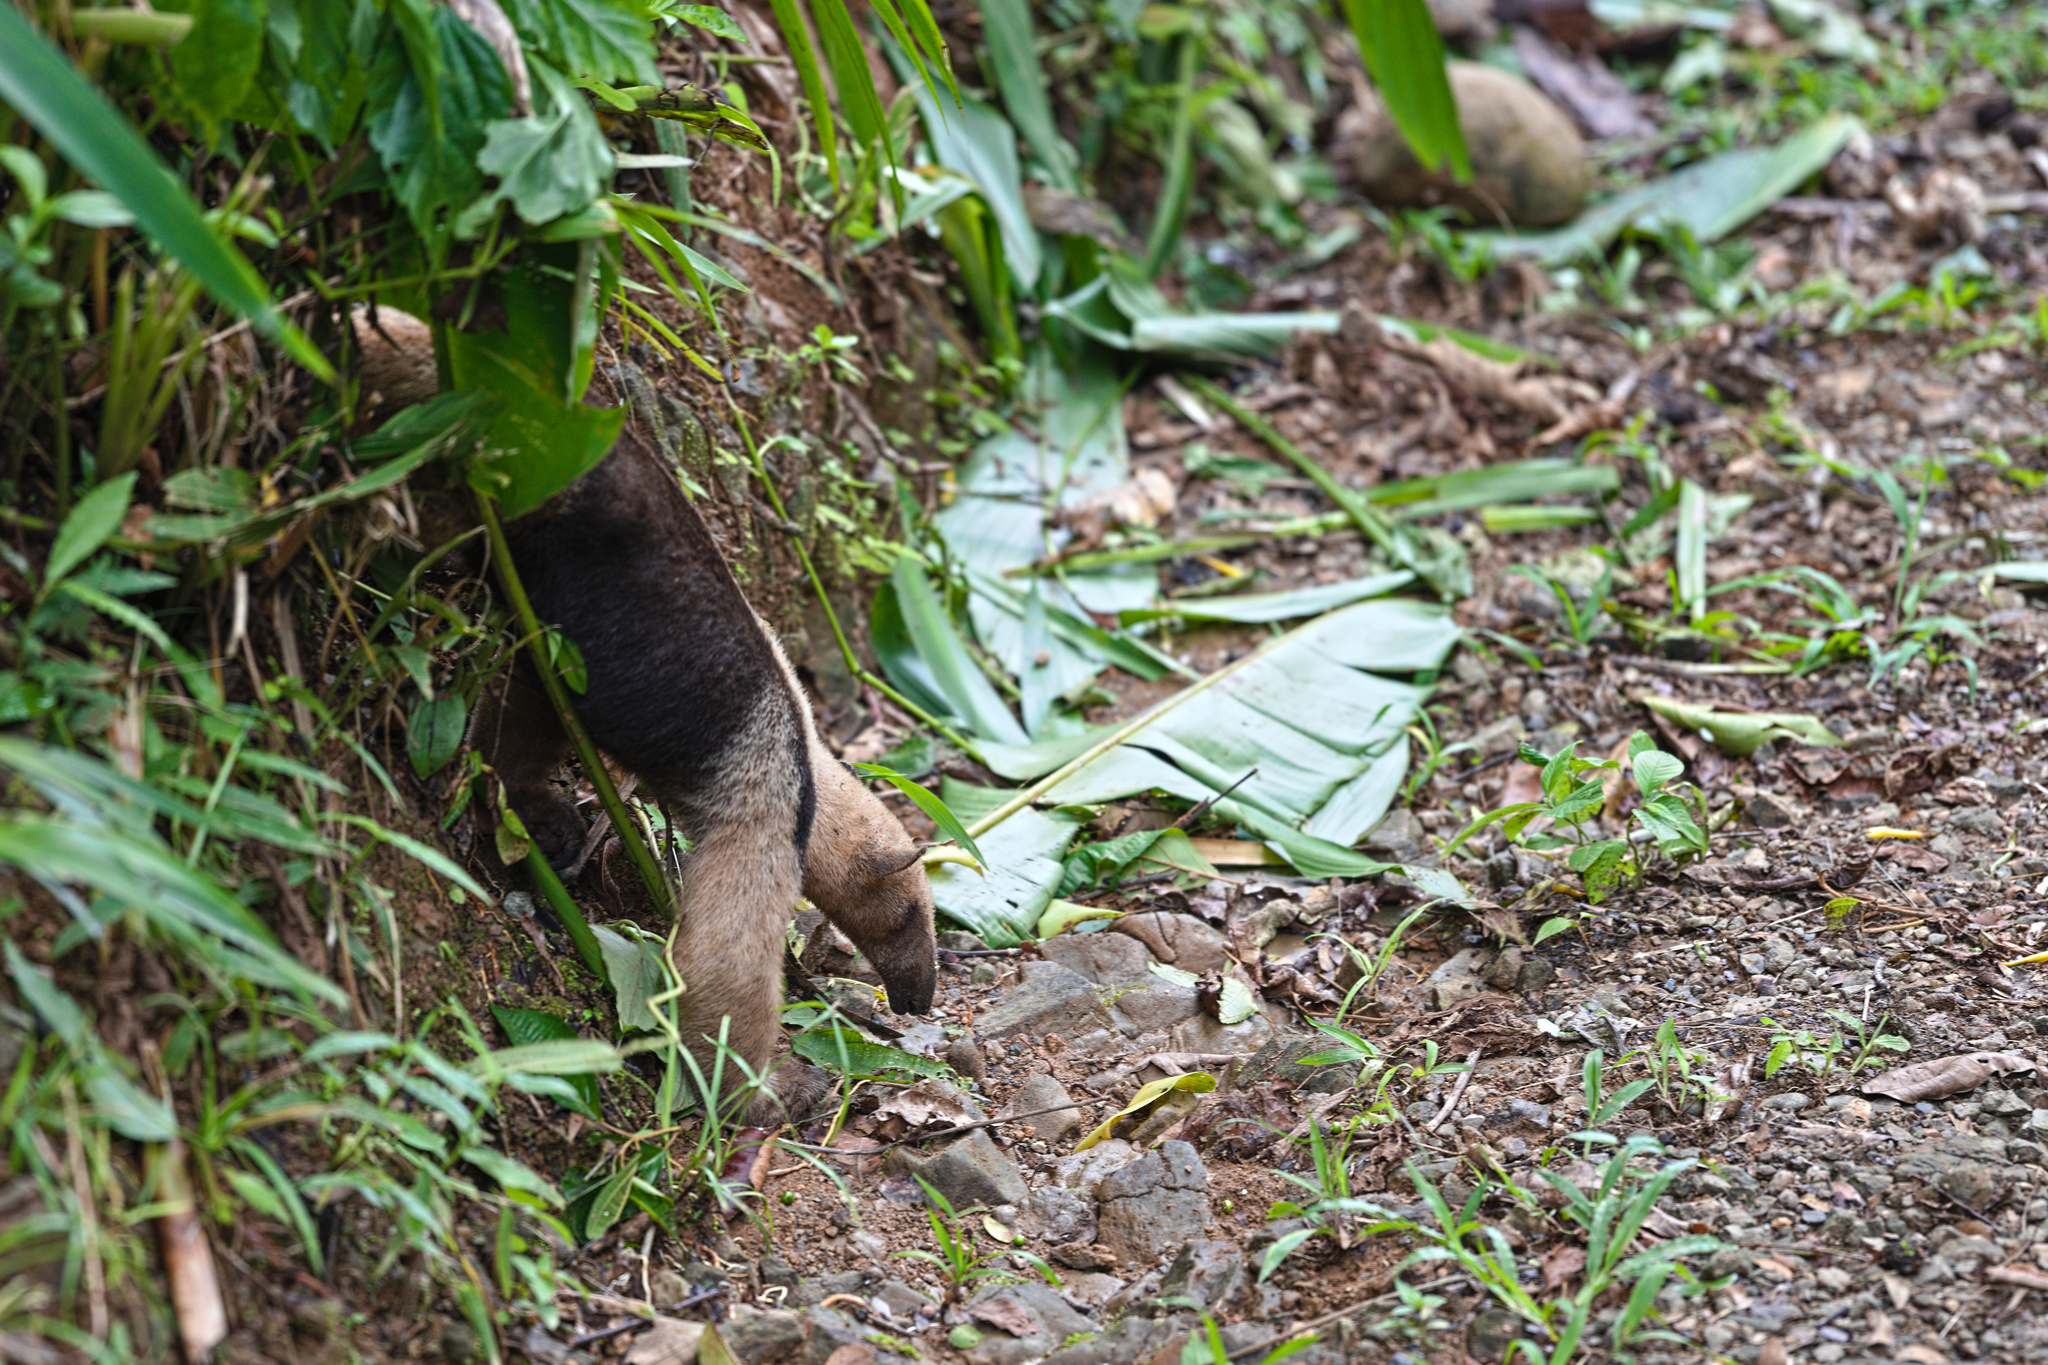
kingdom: Animalia
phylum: Chordata
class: Mammalia
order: Pilosa
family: Myrmecophagidae
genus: Tamandua
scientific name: Tamandua mexicana
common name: Northern tamandua
